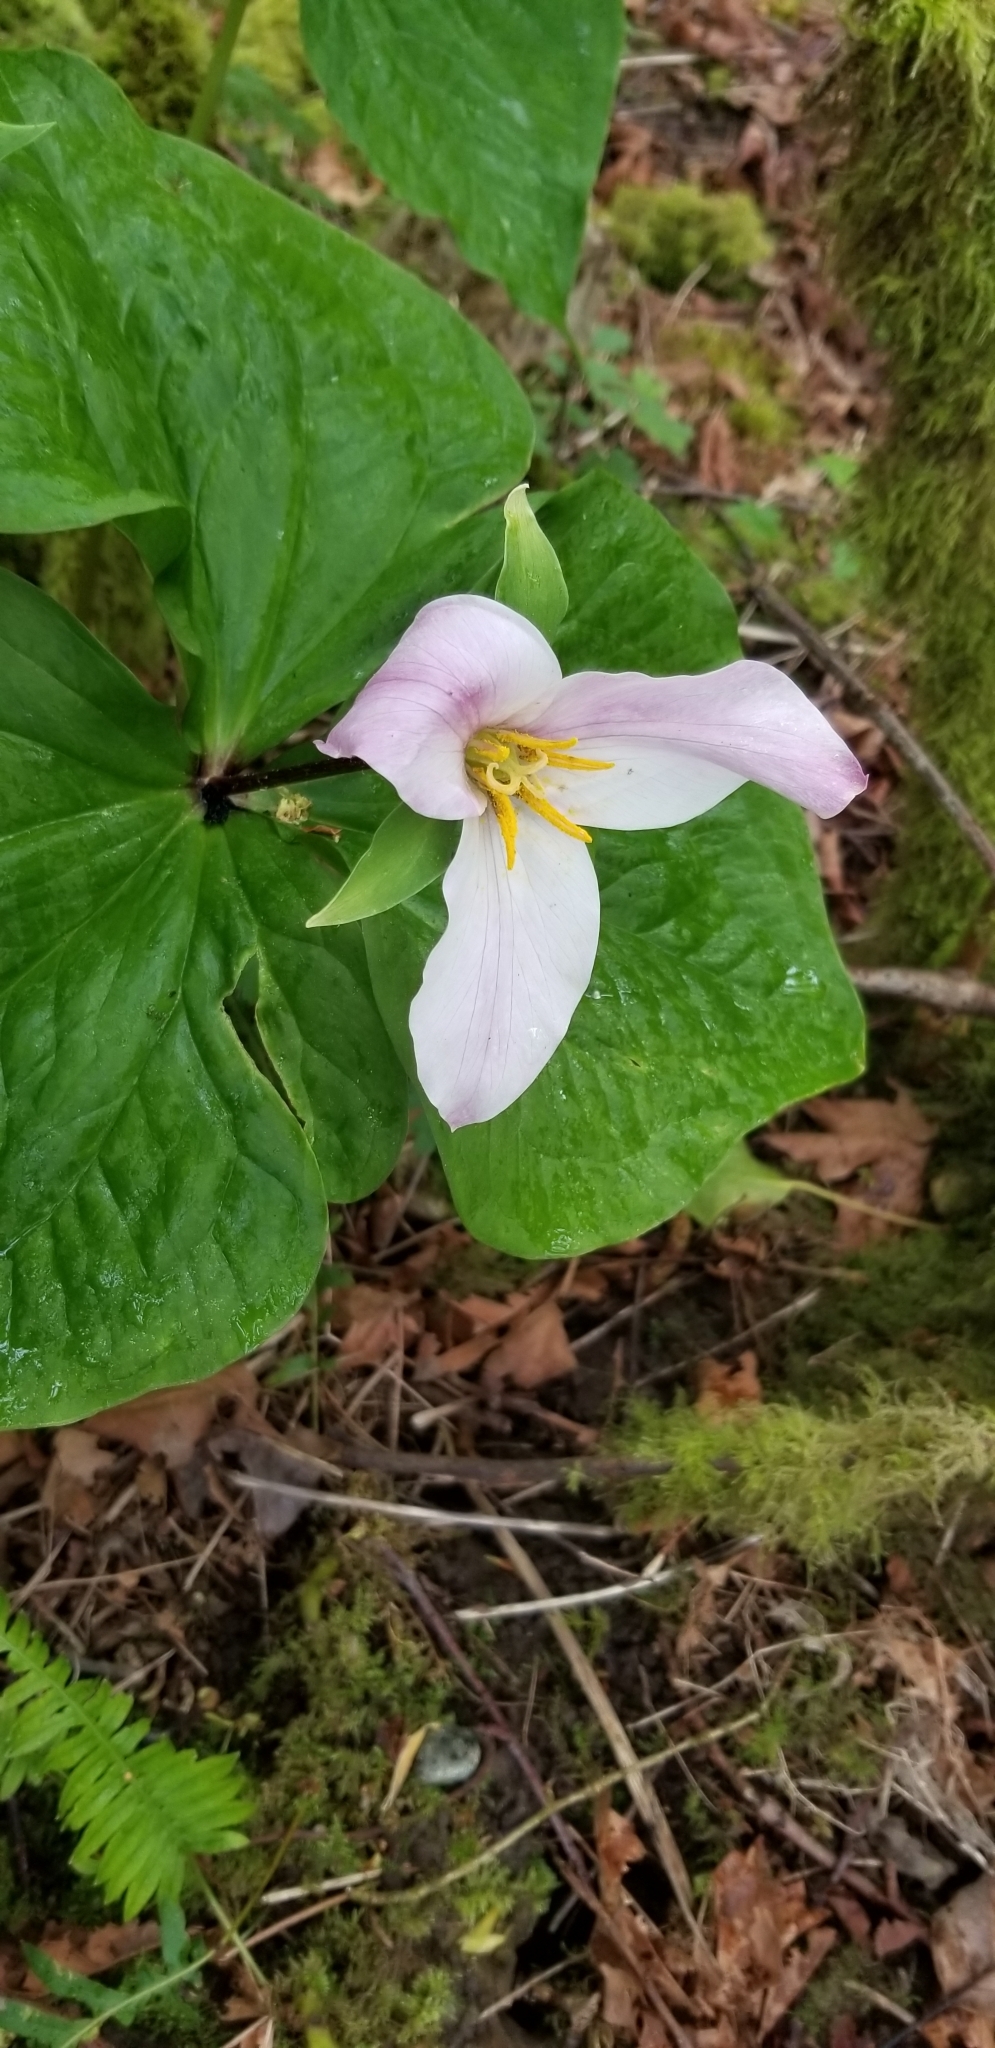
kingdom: Plantae
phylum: Tracheophyta
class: Liliopsida
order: Liliales
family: Melanthiaceae
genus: Trillium
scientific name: Trillium ovatum
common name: Pacific trillium
